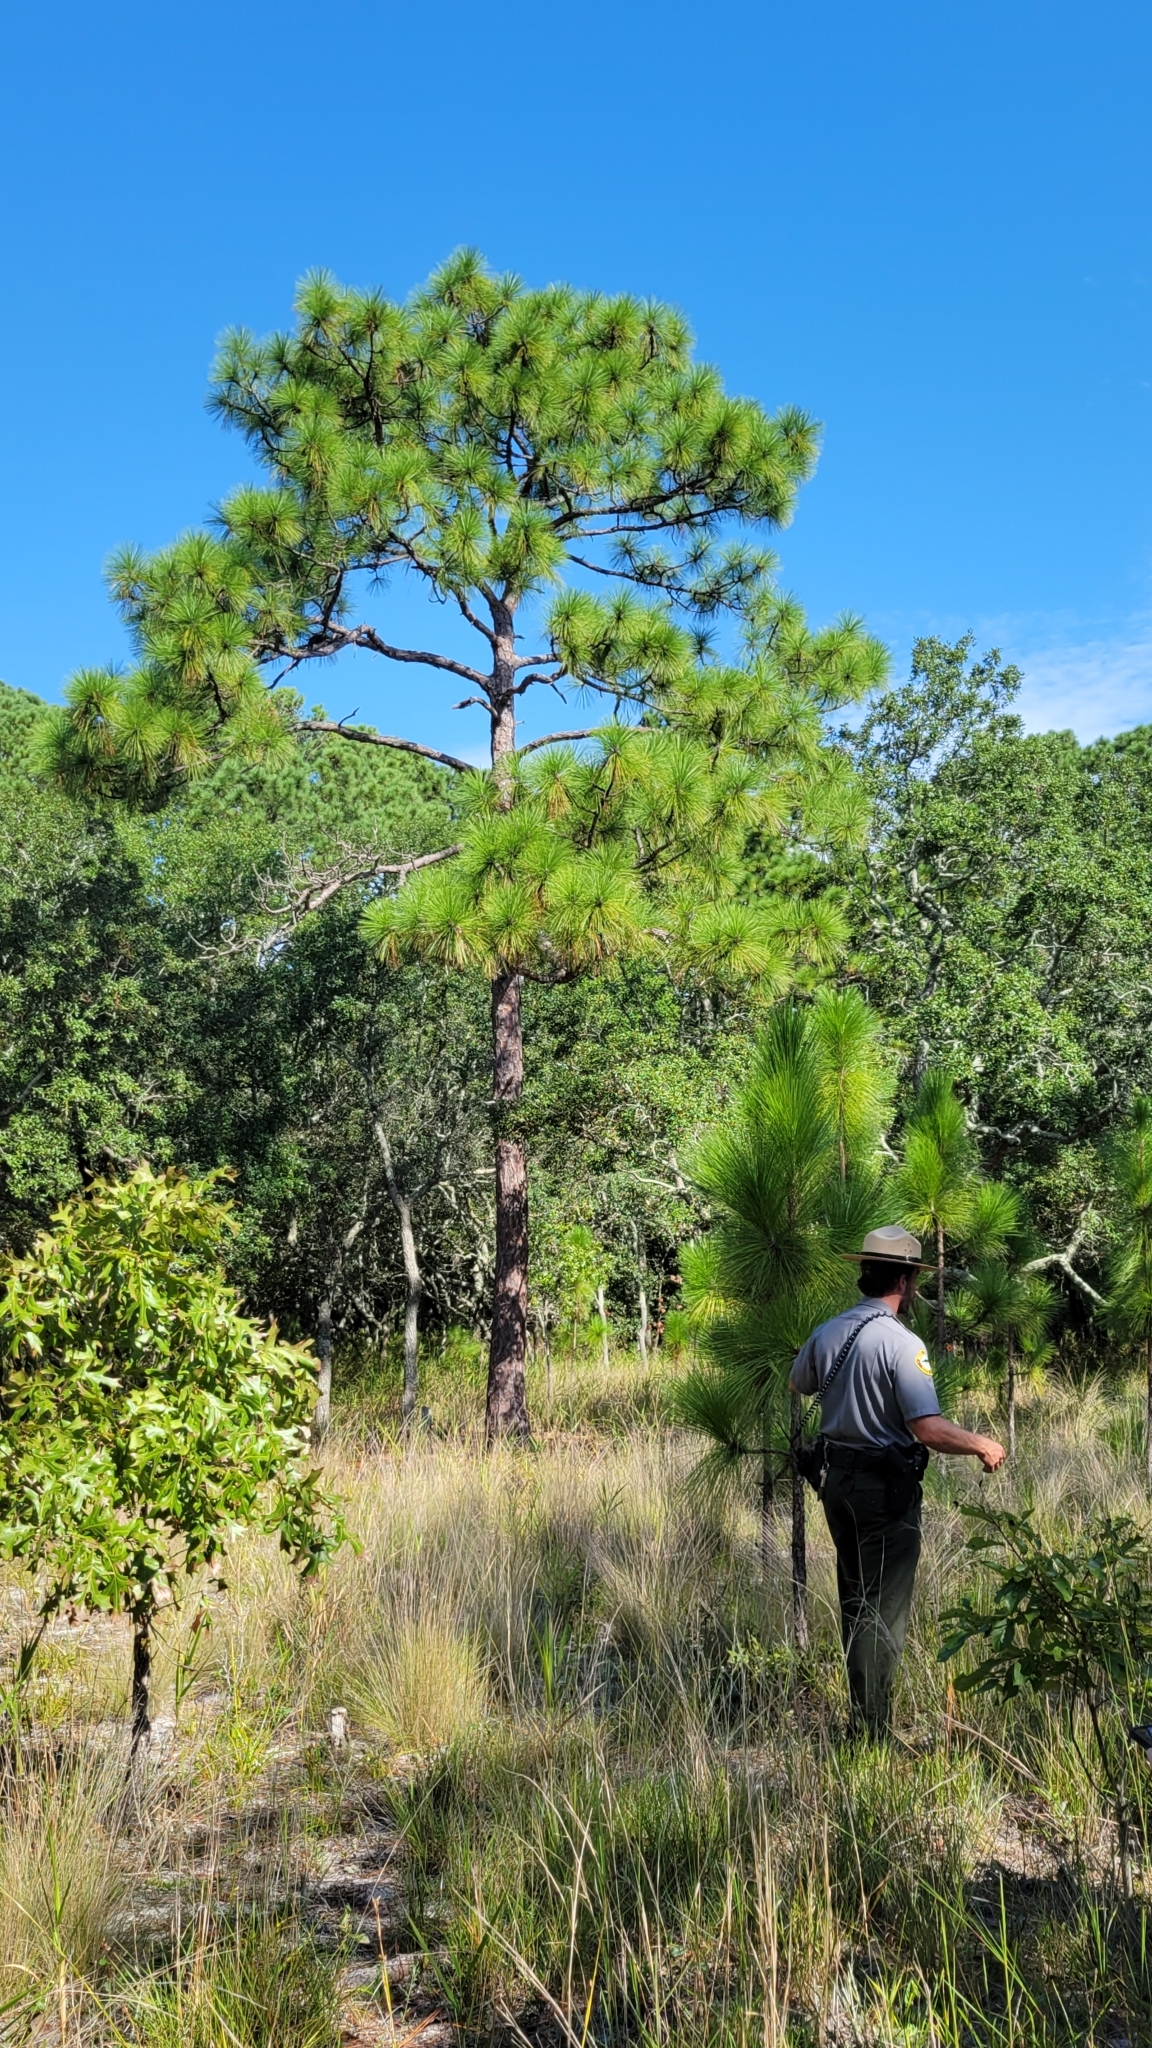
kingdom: Plantae
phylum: Tracheophyta
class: Pinopsida
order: Pinales
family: Pinaceae
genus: Pinus
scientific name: Pinus palustris
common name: Longleaf pine
